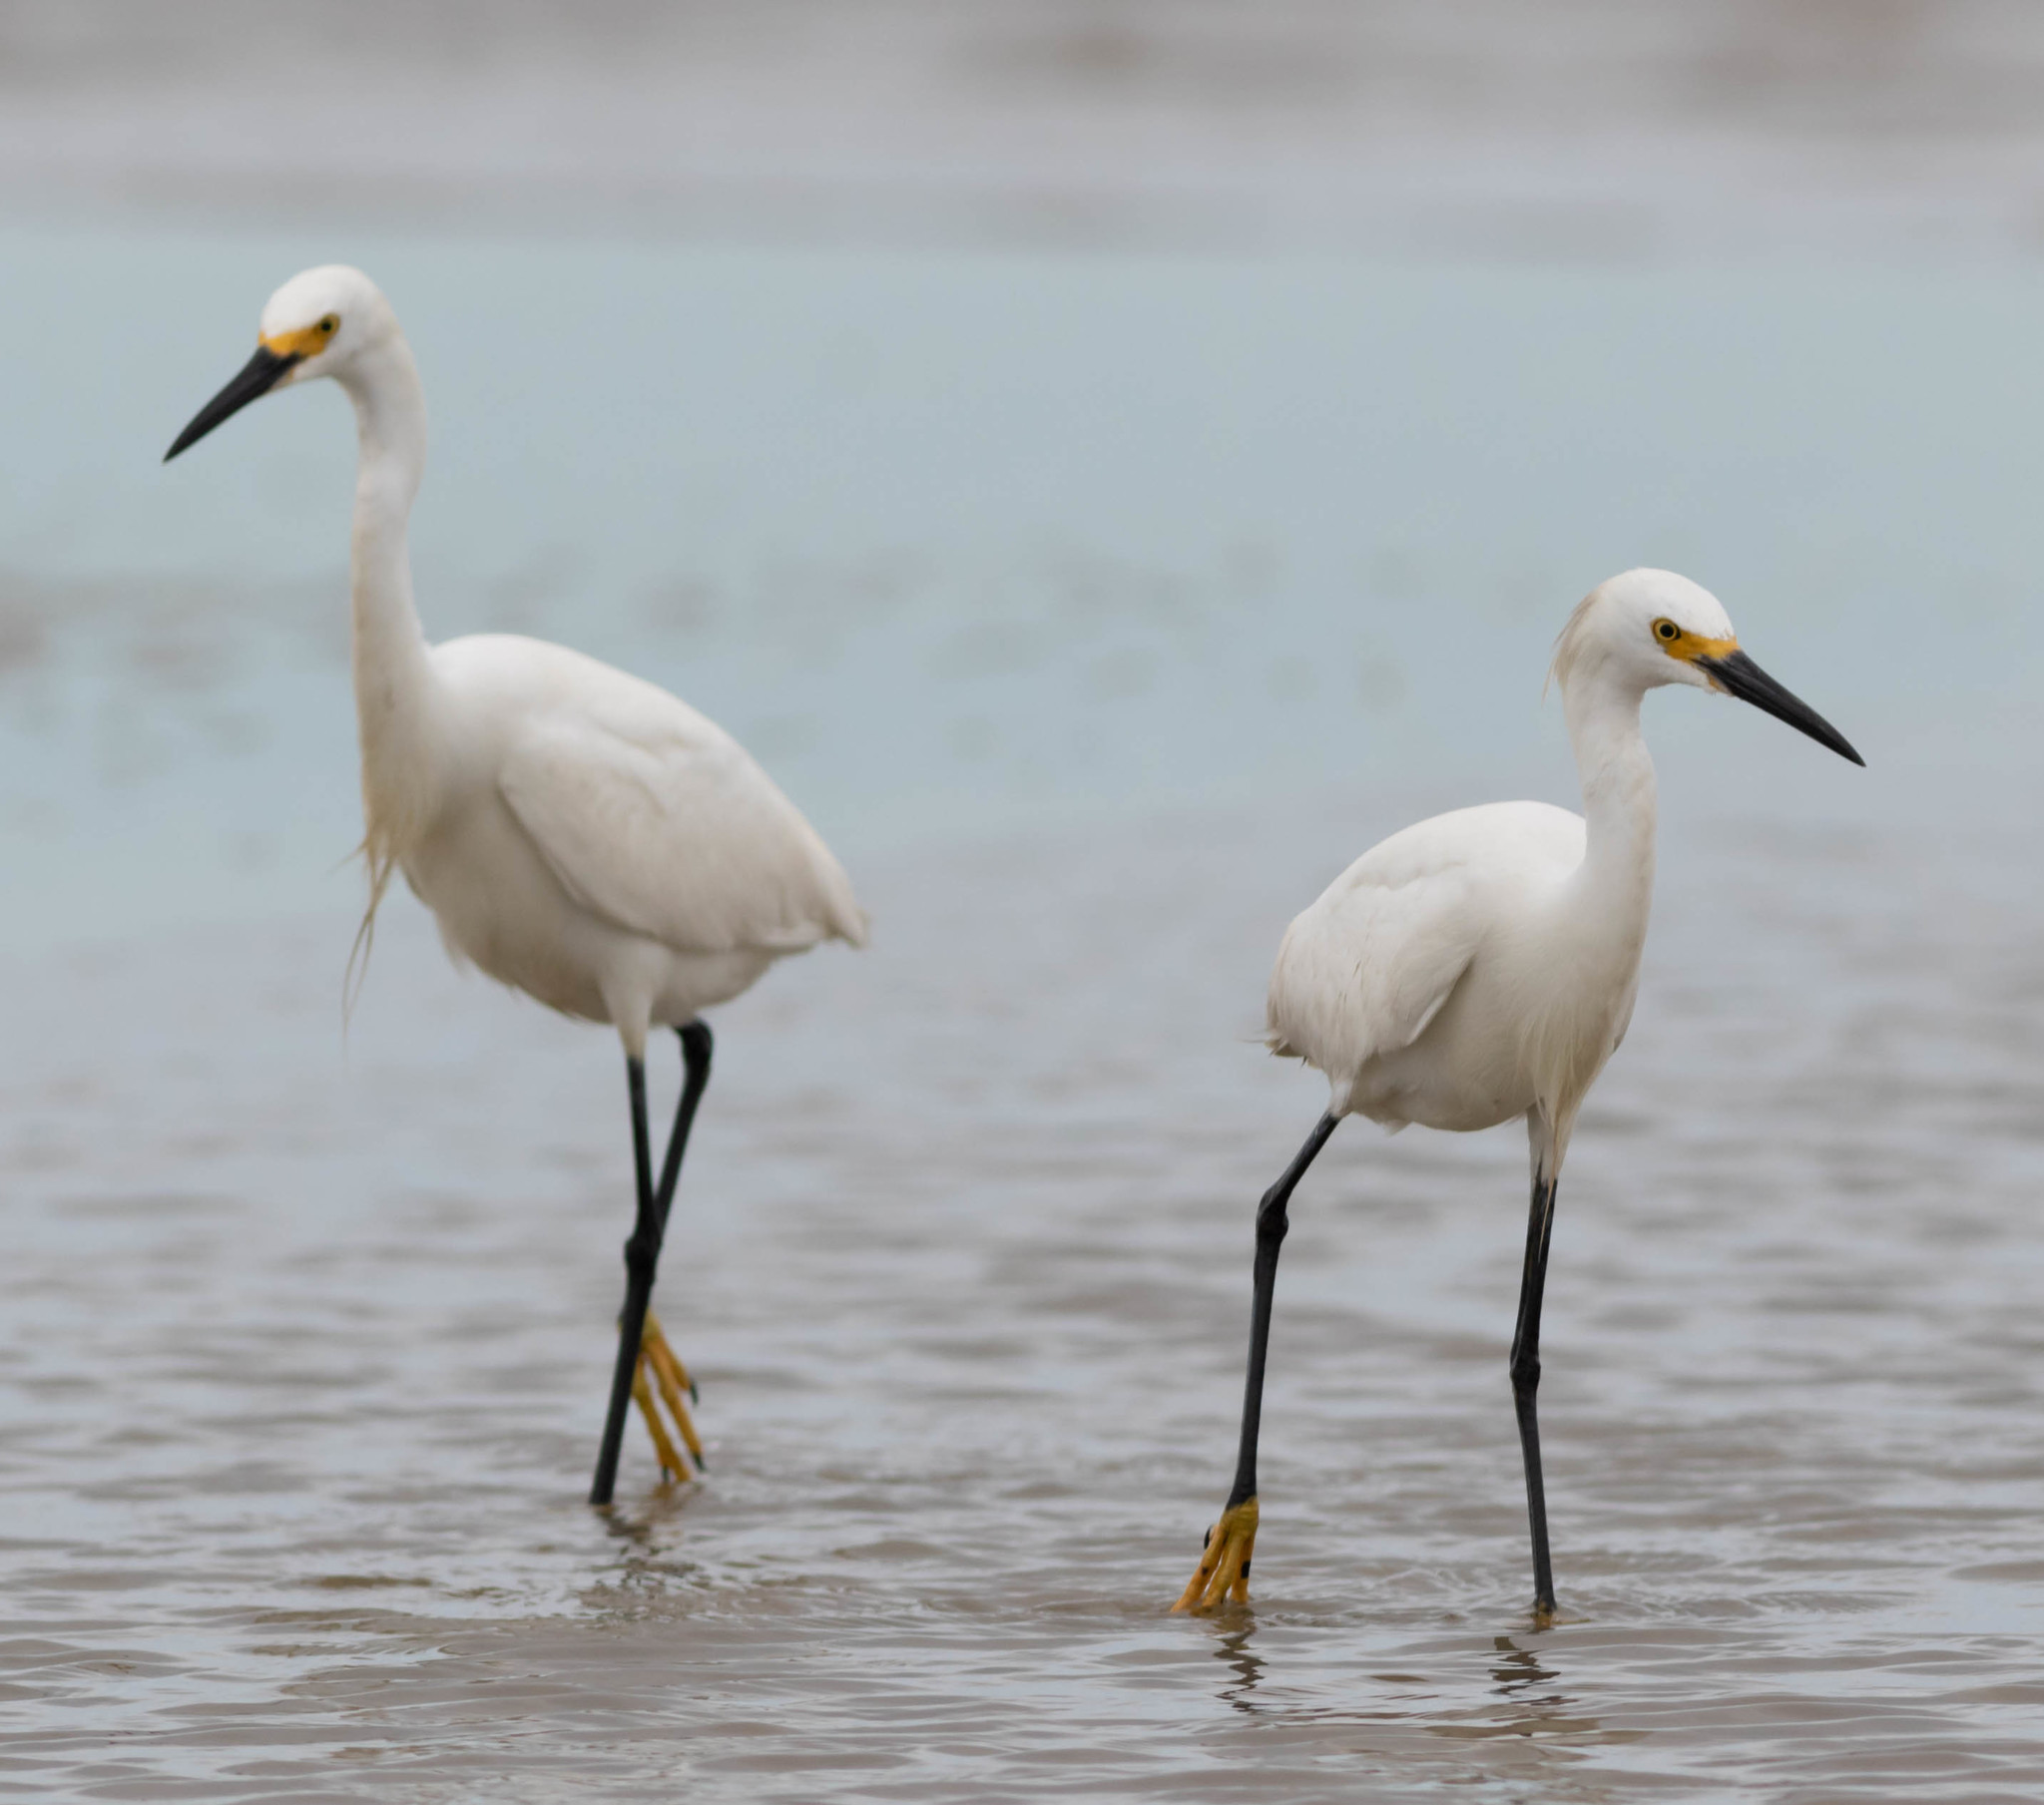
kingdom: Animalia
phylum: Chordata
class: Aves
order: Pelecaniformes
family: Ardeidae
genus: Egretta
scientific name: Egretta thula
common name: Snowy egret
